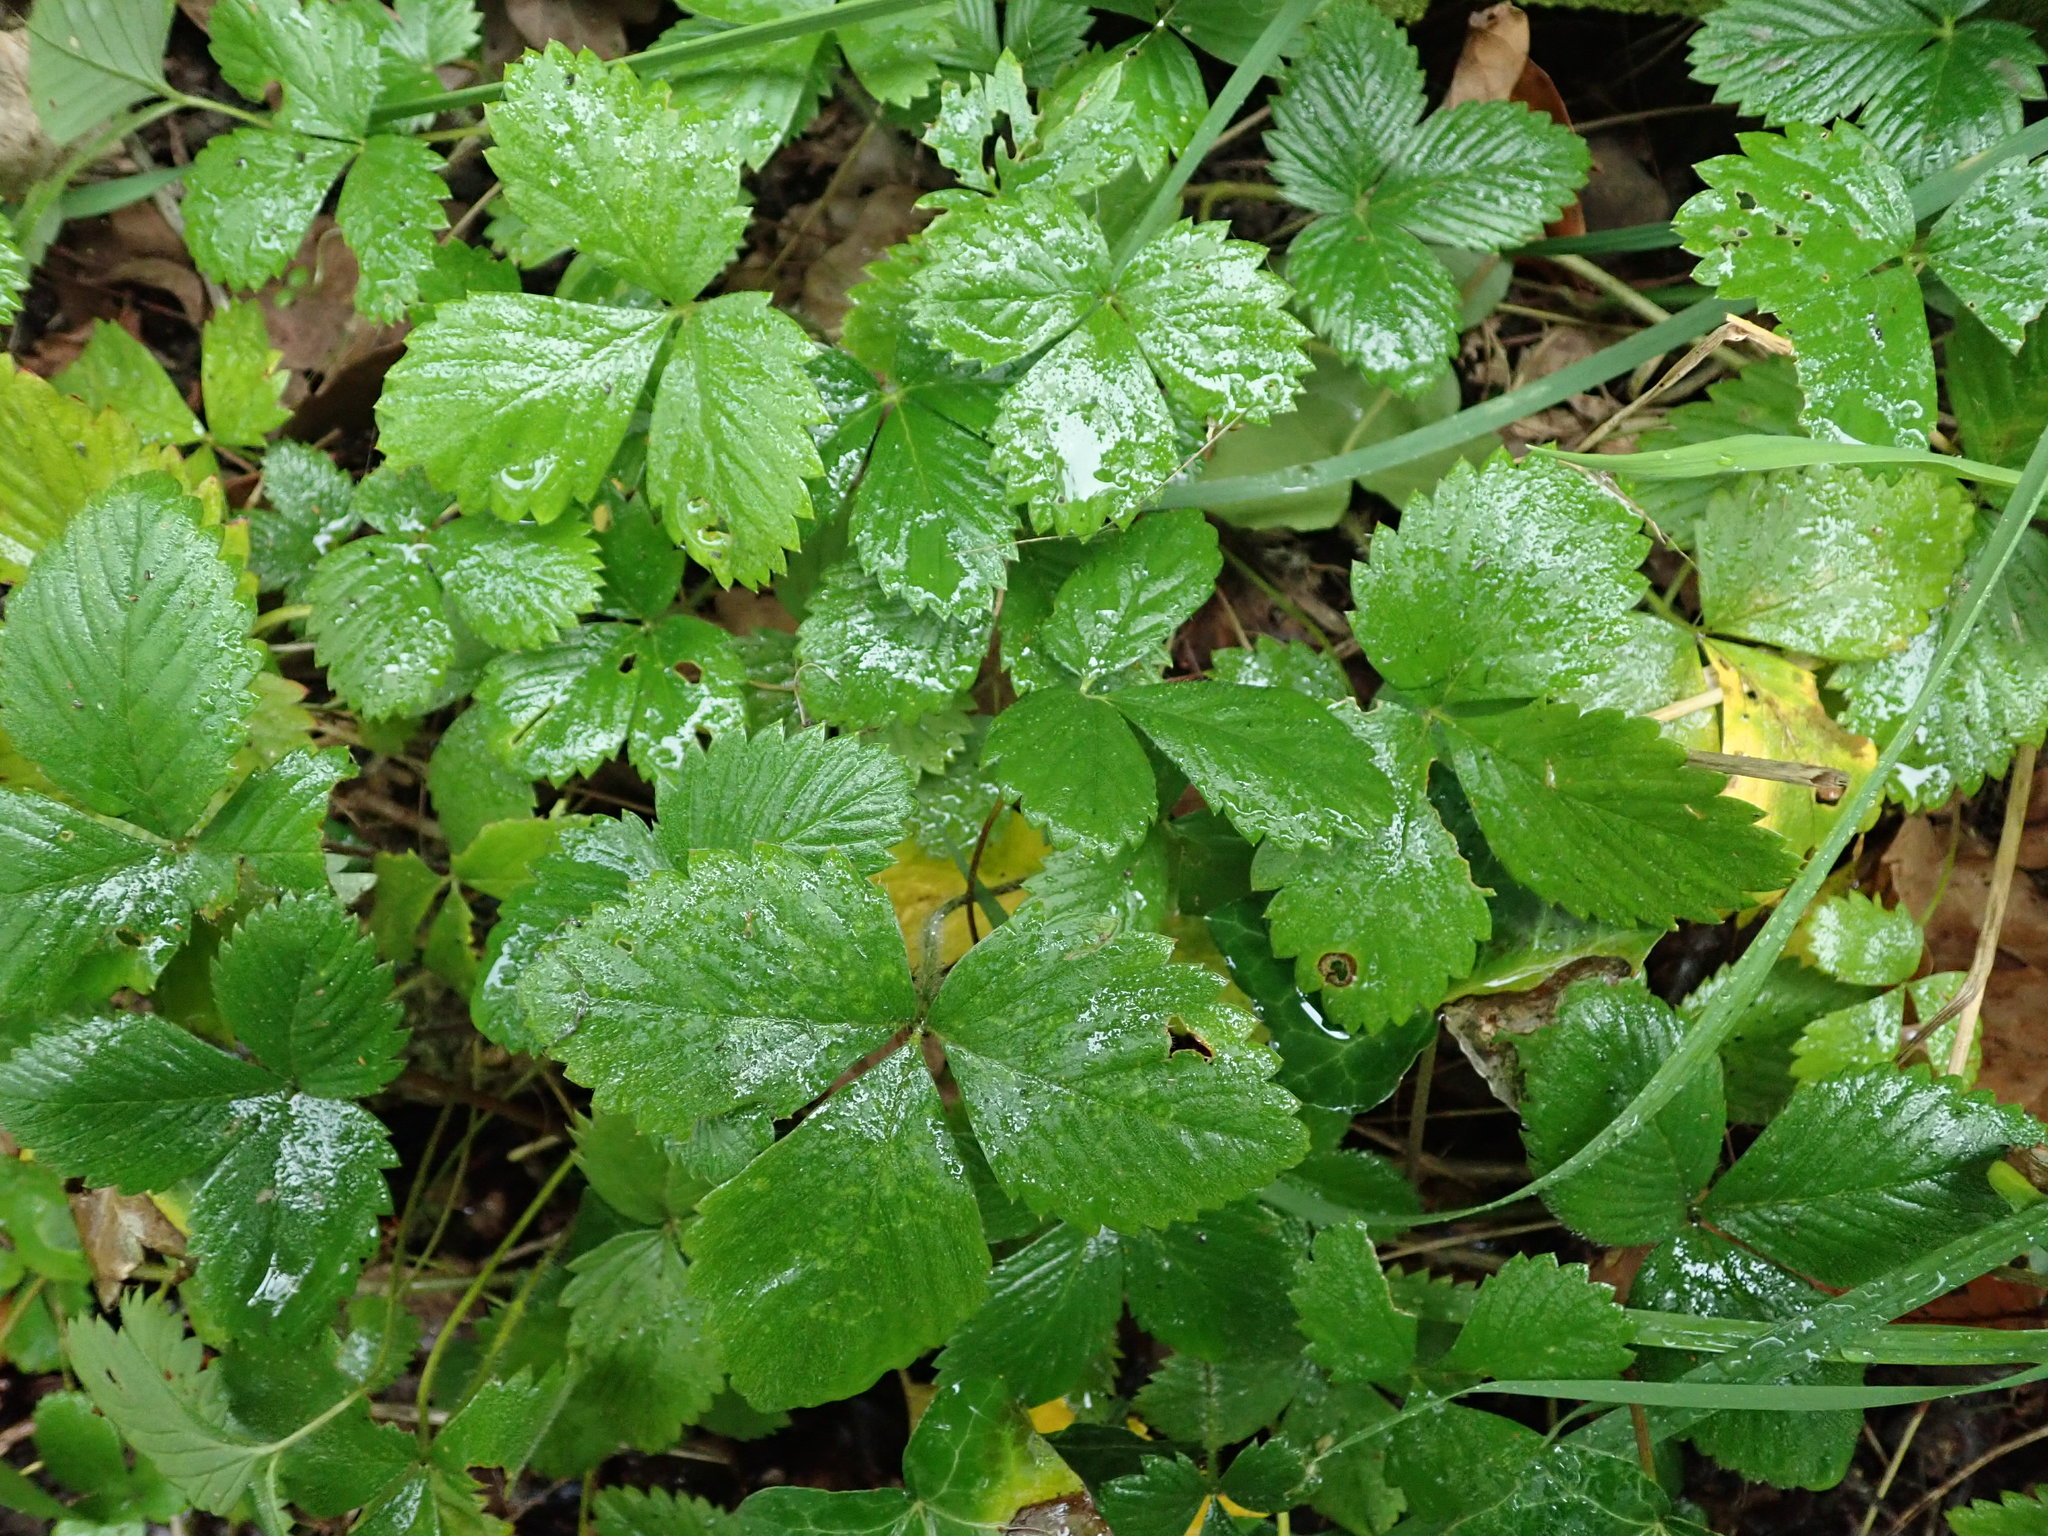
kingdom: Plantae
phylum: Tracheophyta
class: Magnoliopsida
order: Rosales
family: Rosaceae
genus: Fragaria
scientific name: Fragaria vesca
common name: Wild strawberry
